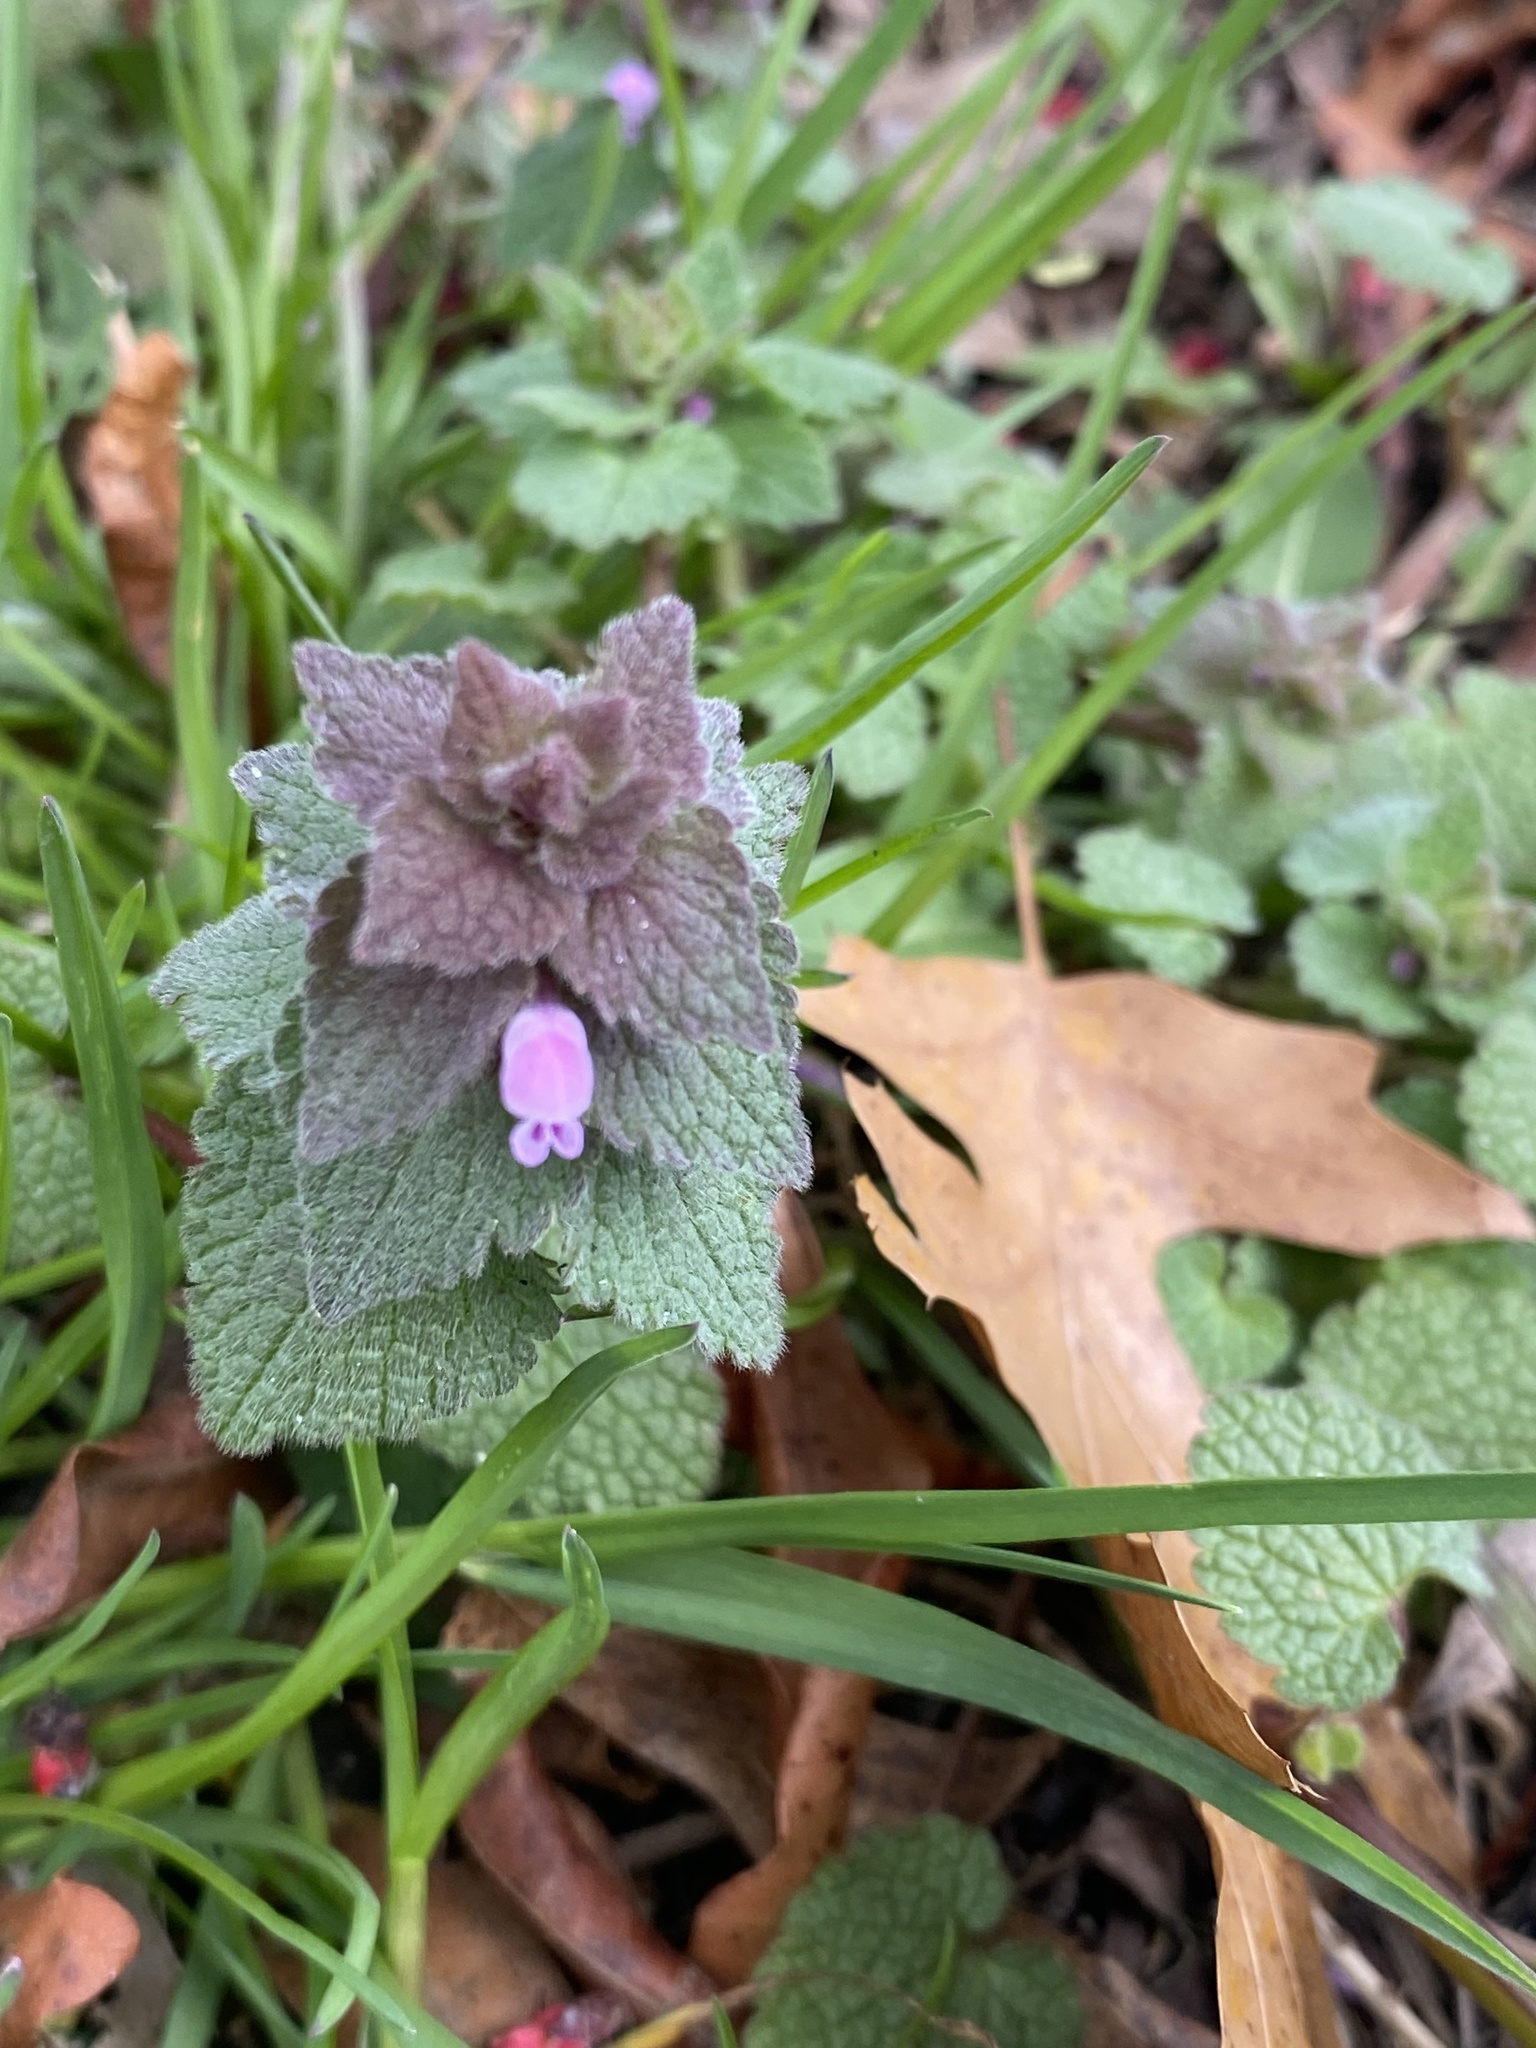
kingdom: Plantae
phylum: Tracheophyta
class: Magnoliopsida
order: Lamiales
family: Lamiaceae
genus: Lamium
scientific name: Lamium purpureum
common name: Red dead-nettle
